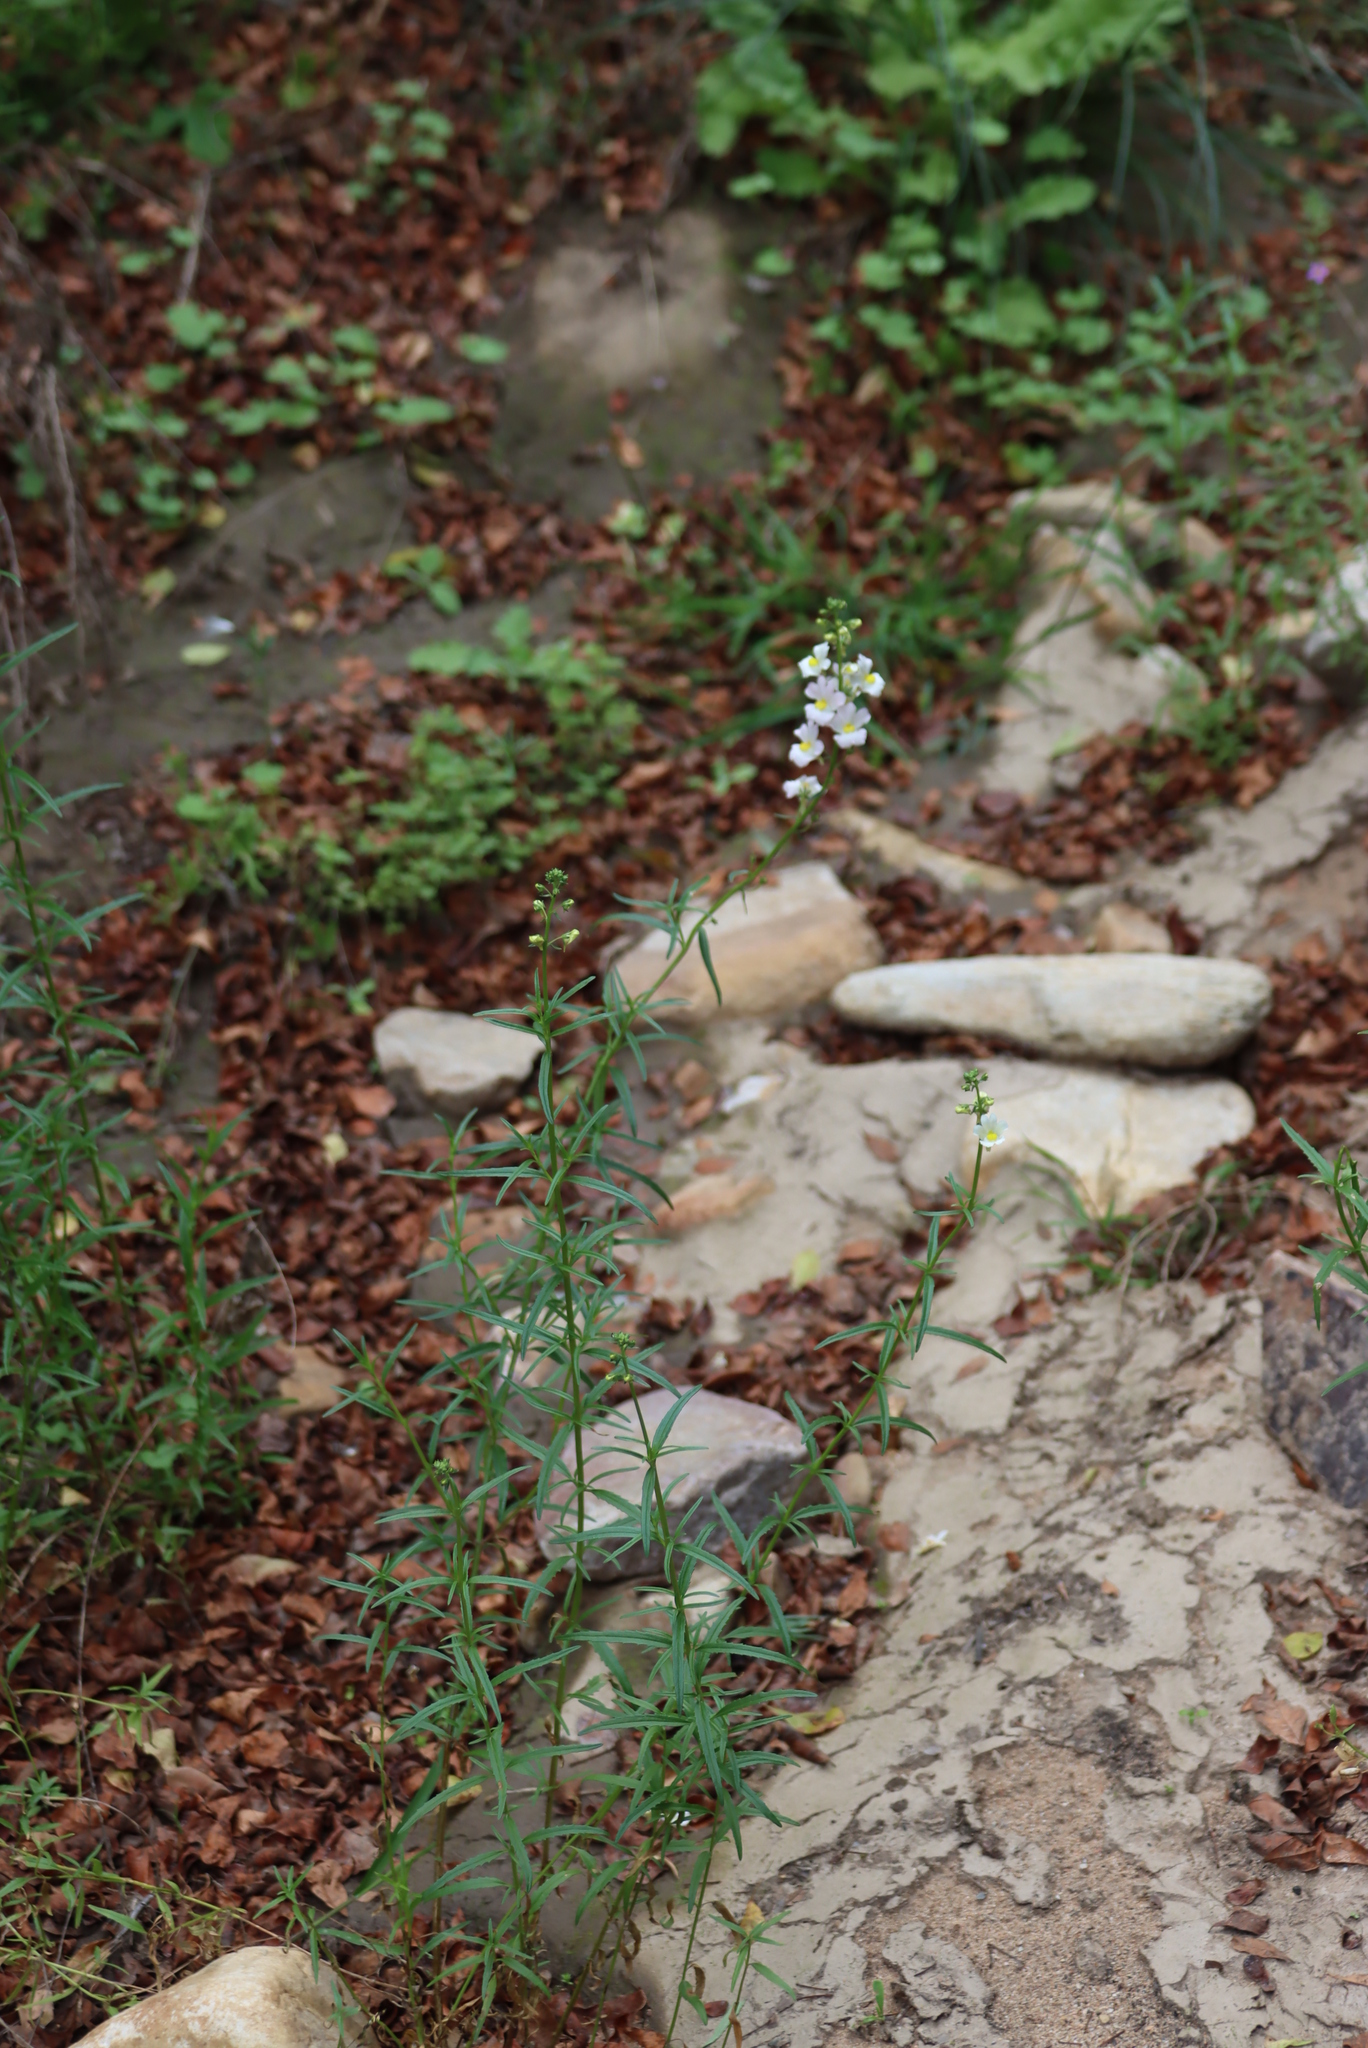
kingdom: Plantae
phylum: Tracheophyta
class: Magnoliopsida
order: Lamiales
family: Scrophulariaceae
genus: Nemesia
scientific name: Nemesia fruticans
